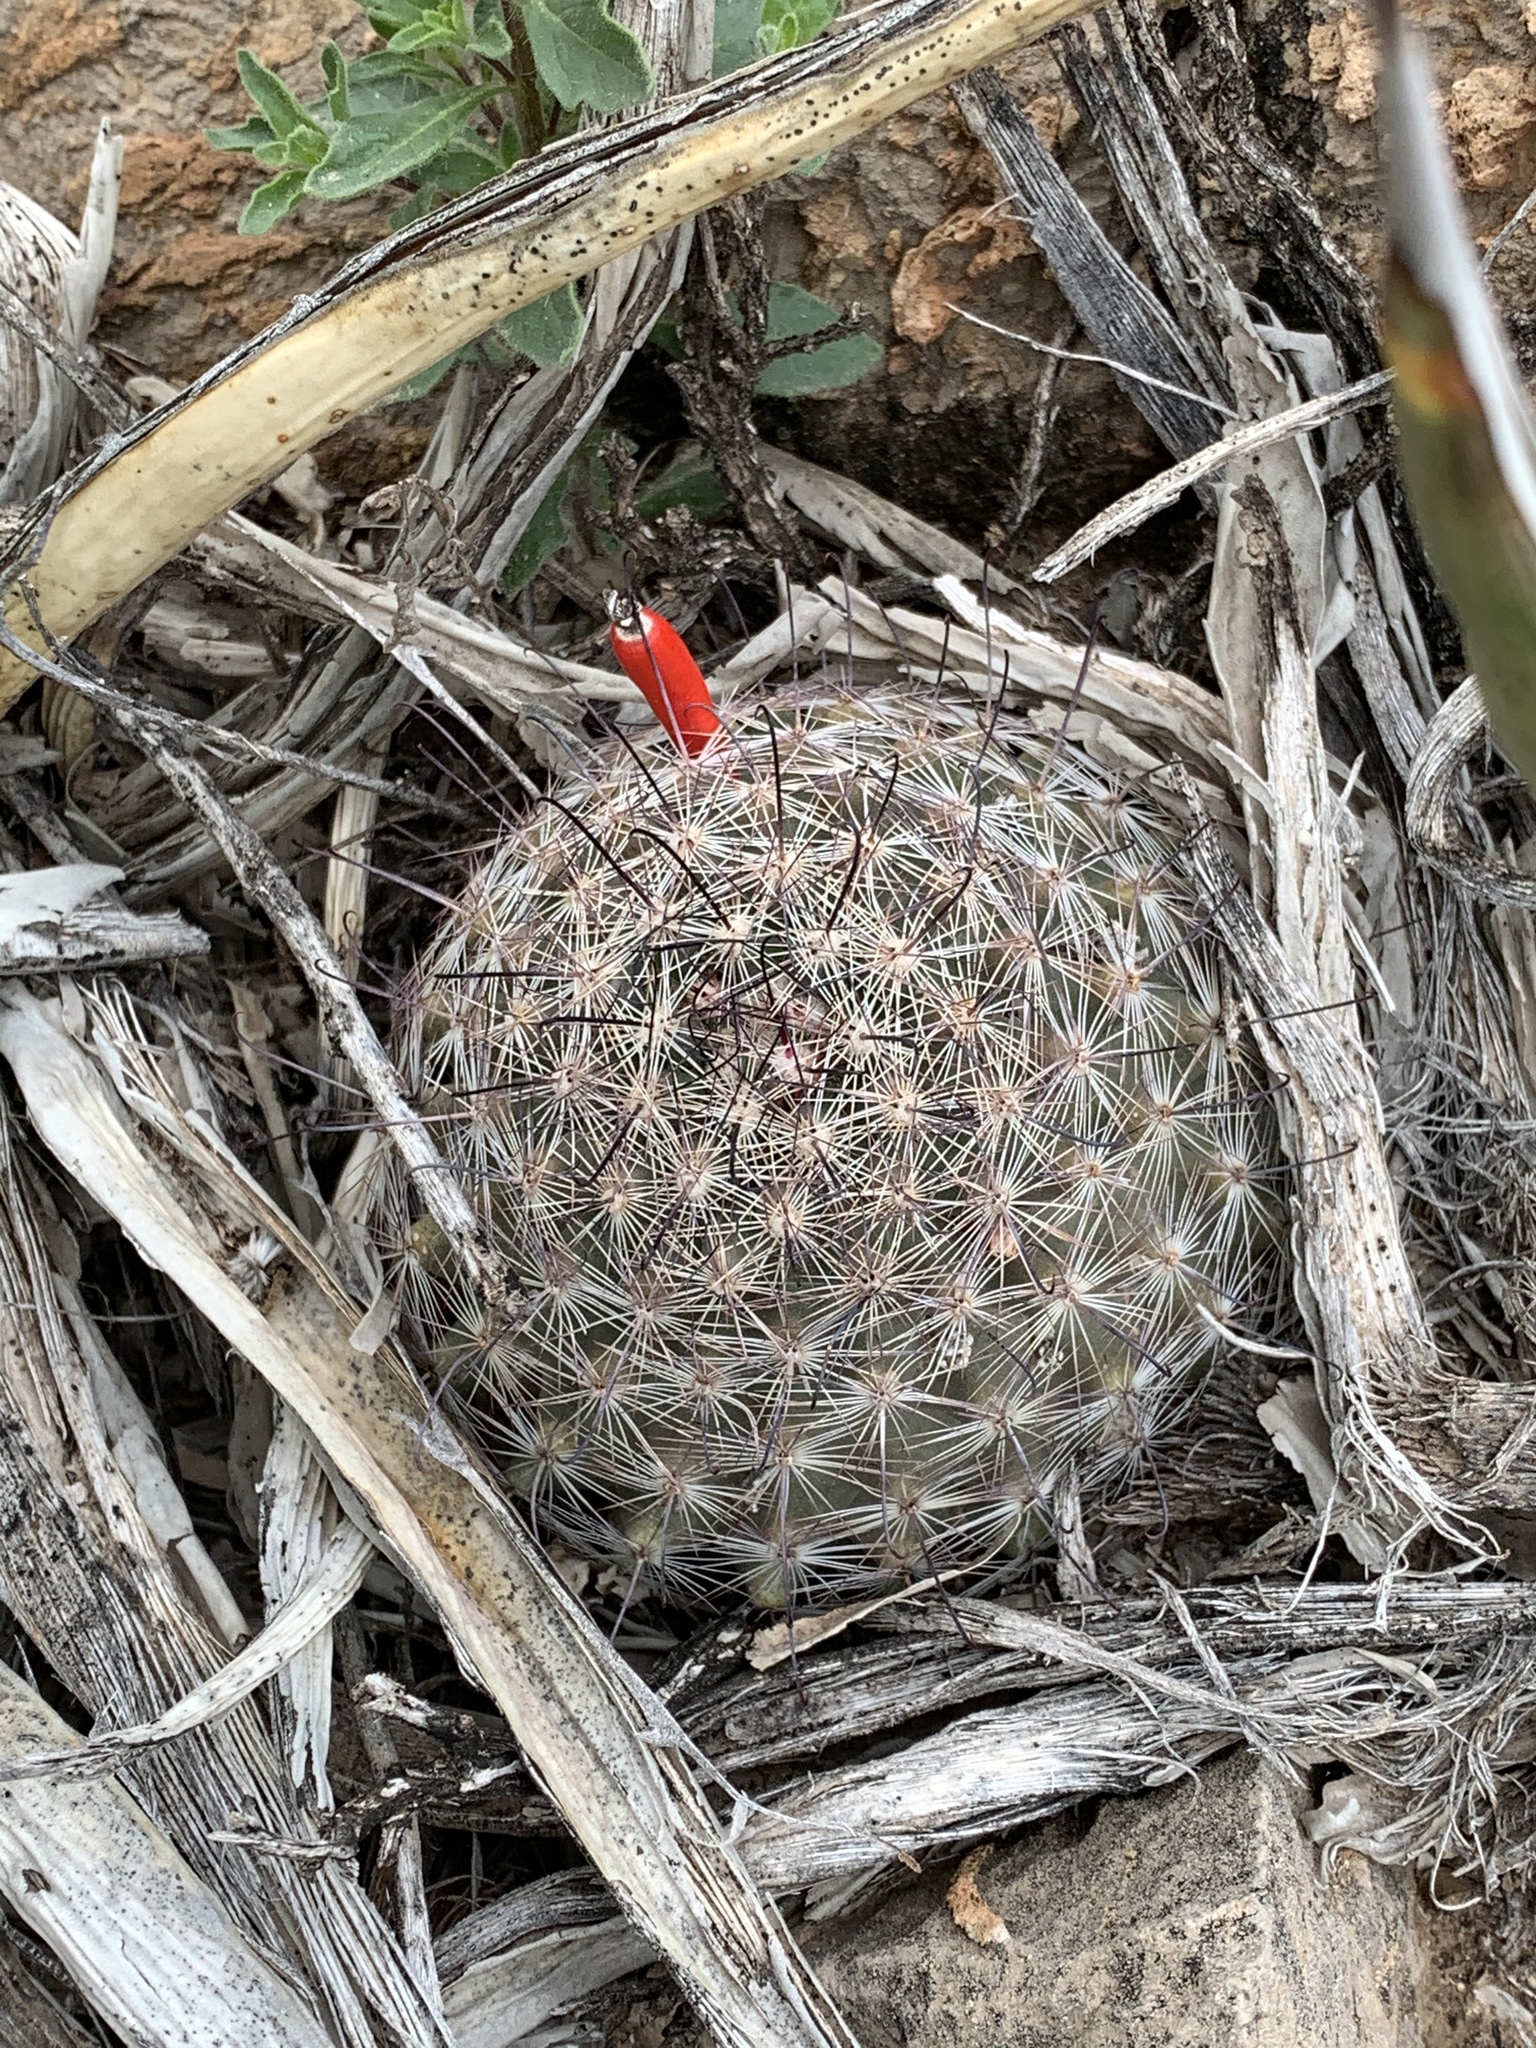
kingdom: Plantae
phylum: Tracheophyta
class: Magnoliopsida
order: Caryophyllales
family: Cactaceae
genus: Cochemiea
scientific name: Cochemiea grahamii
